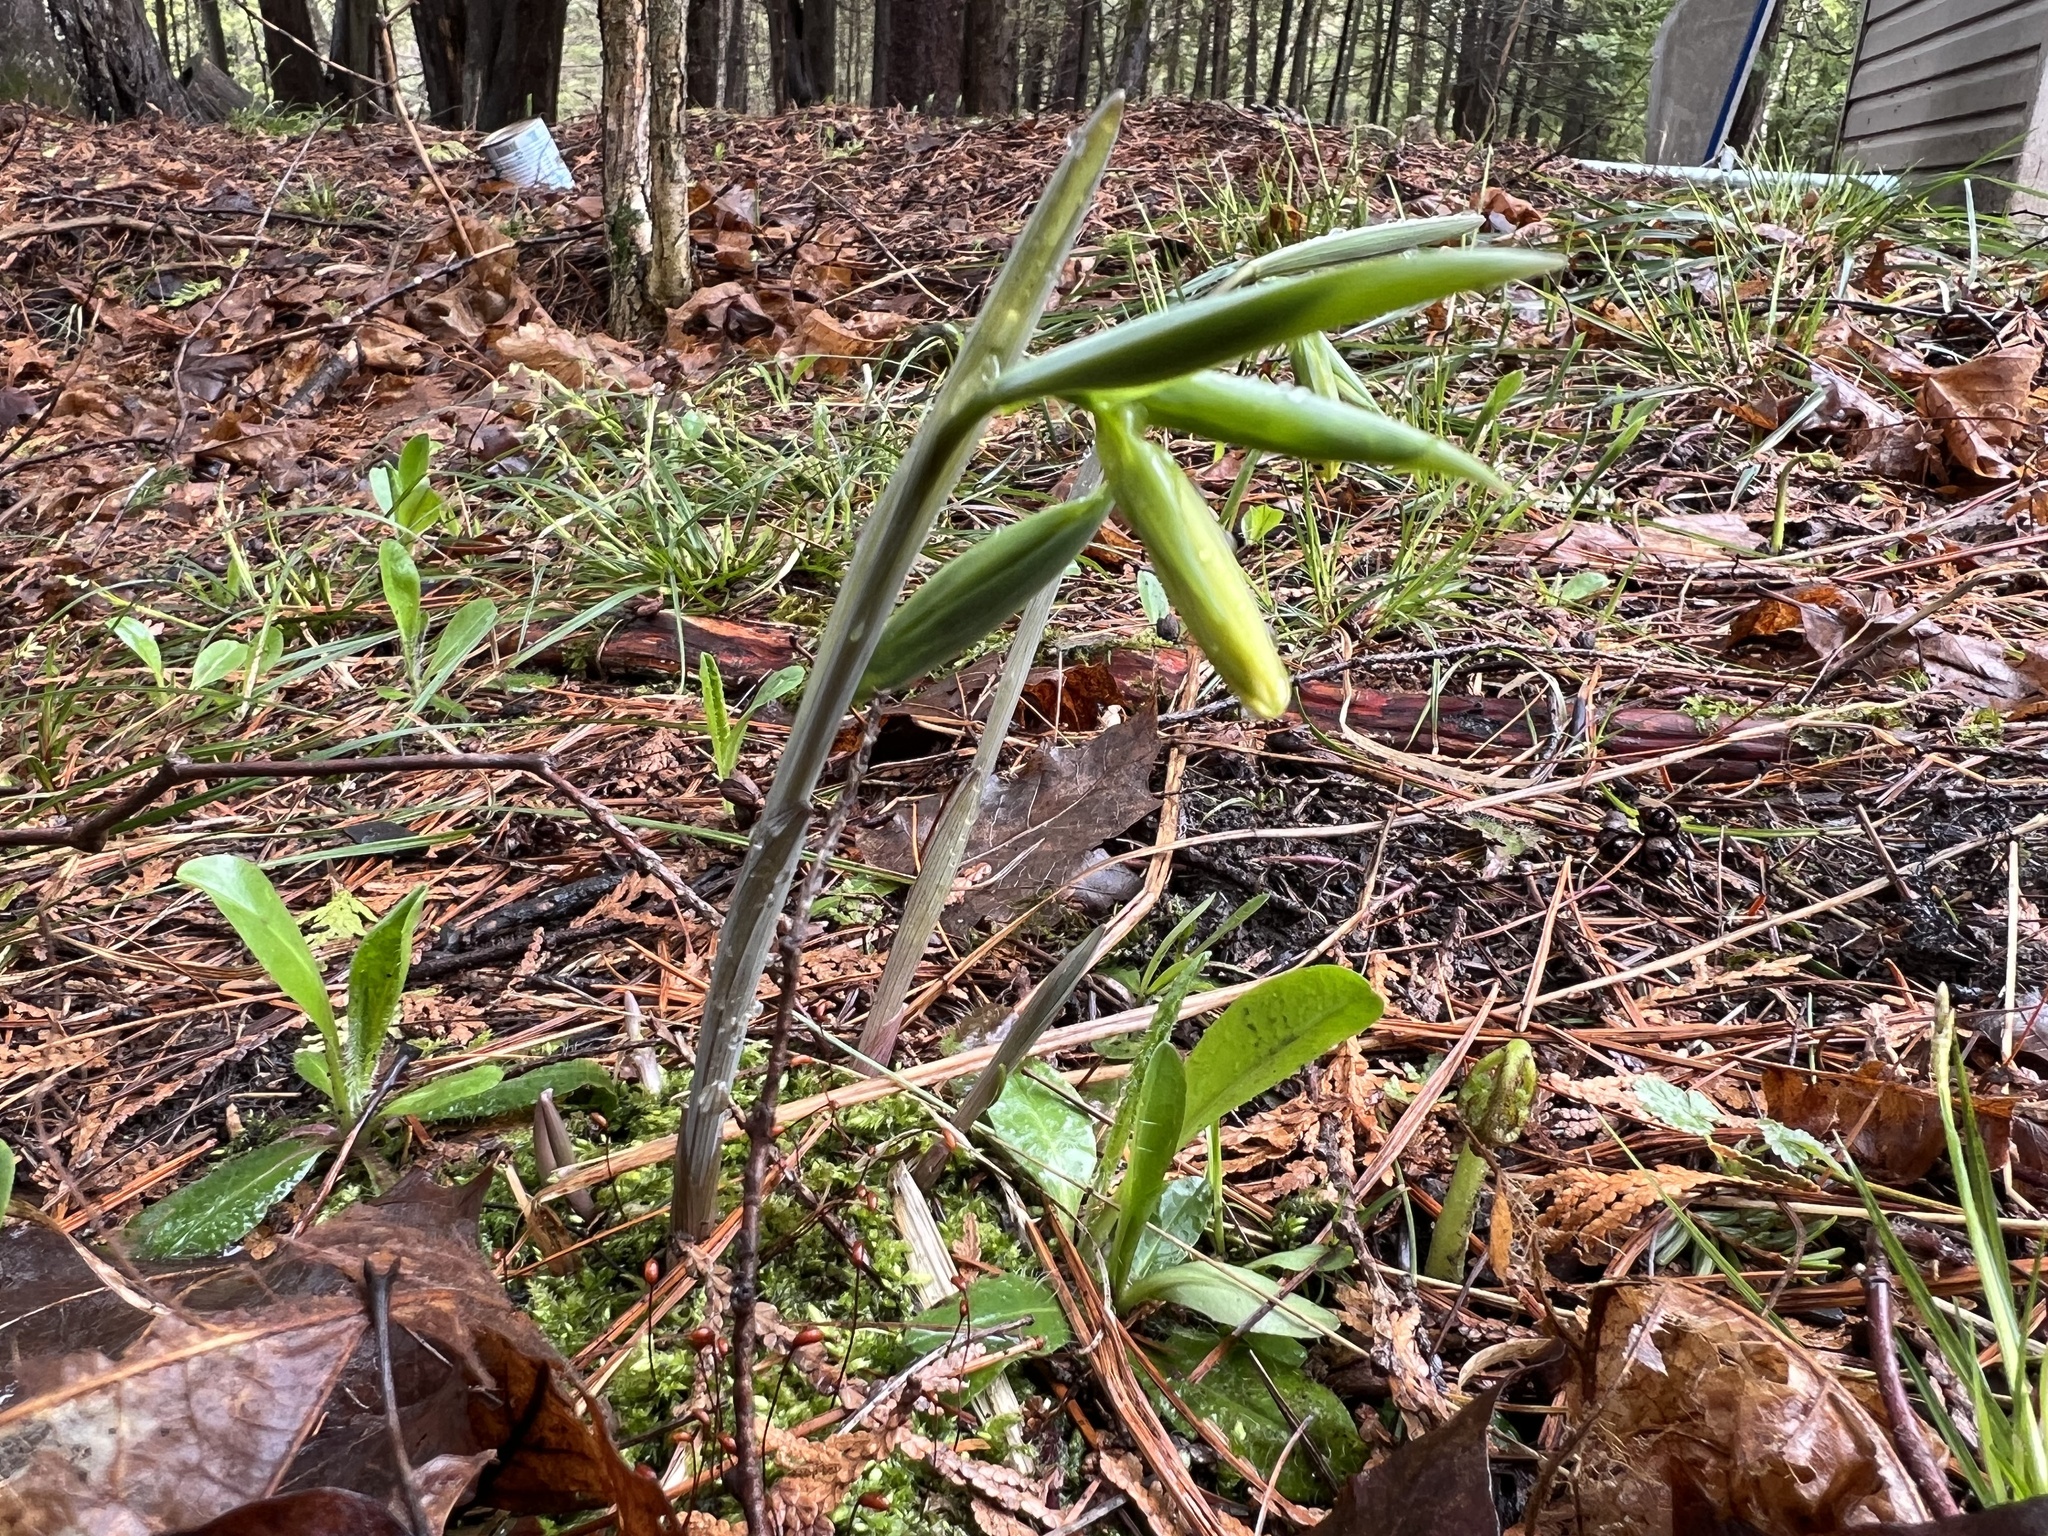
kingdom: Plantae
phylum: Tracheophyta
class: Liliopsida
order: Liliales
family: Colchicaceae
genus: Uvularia
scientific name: Uvularia grandiflora
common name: Bellwort
